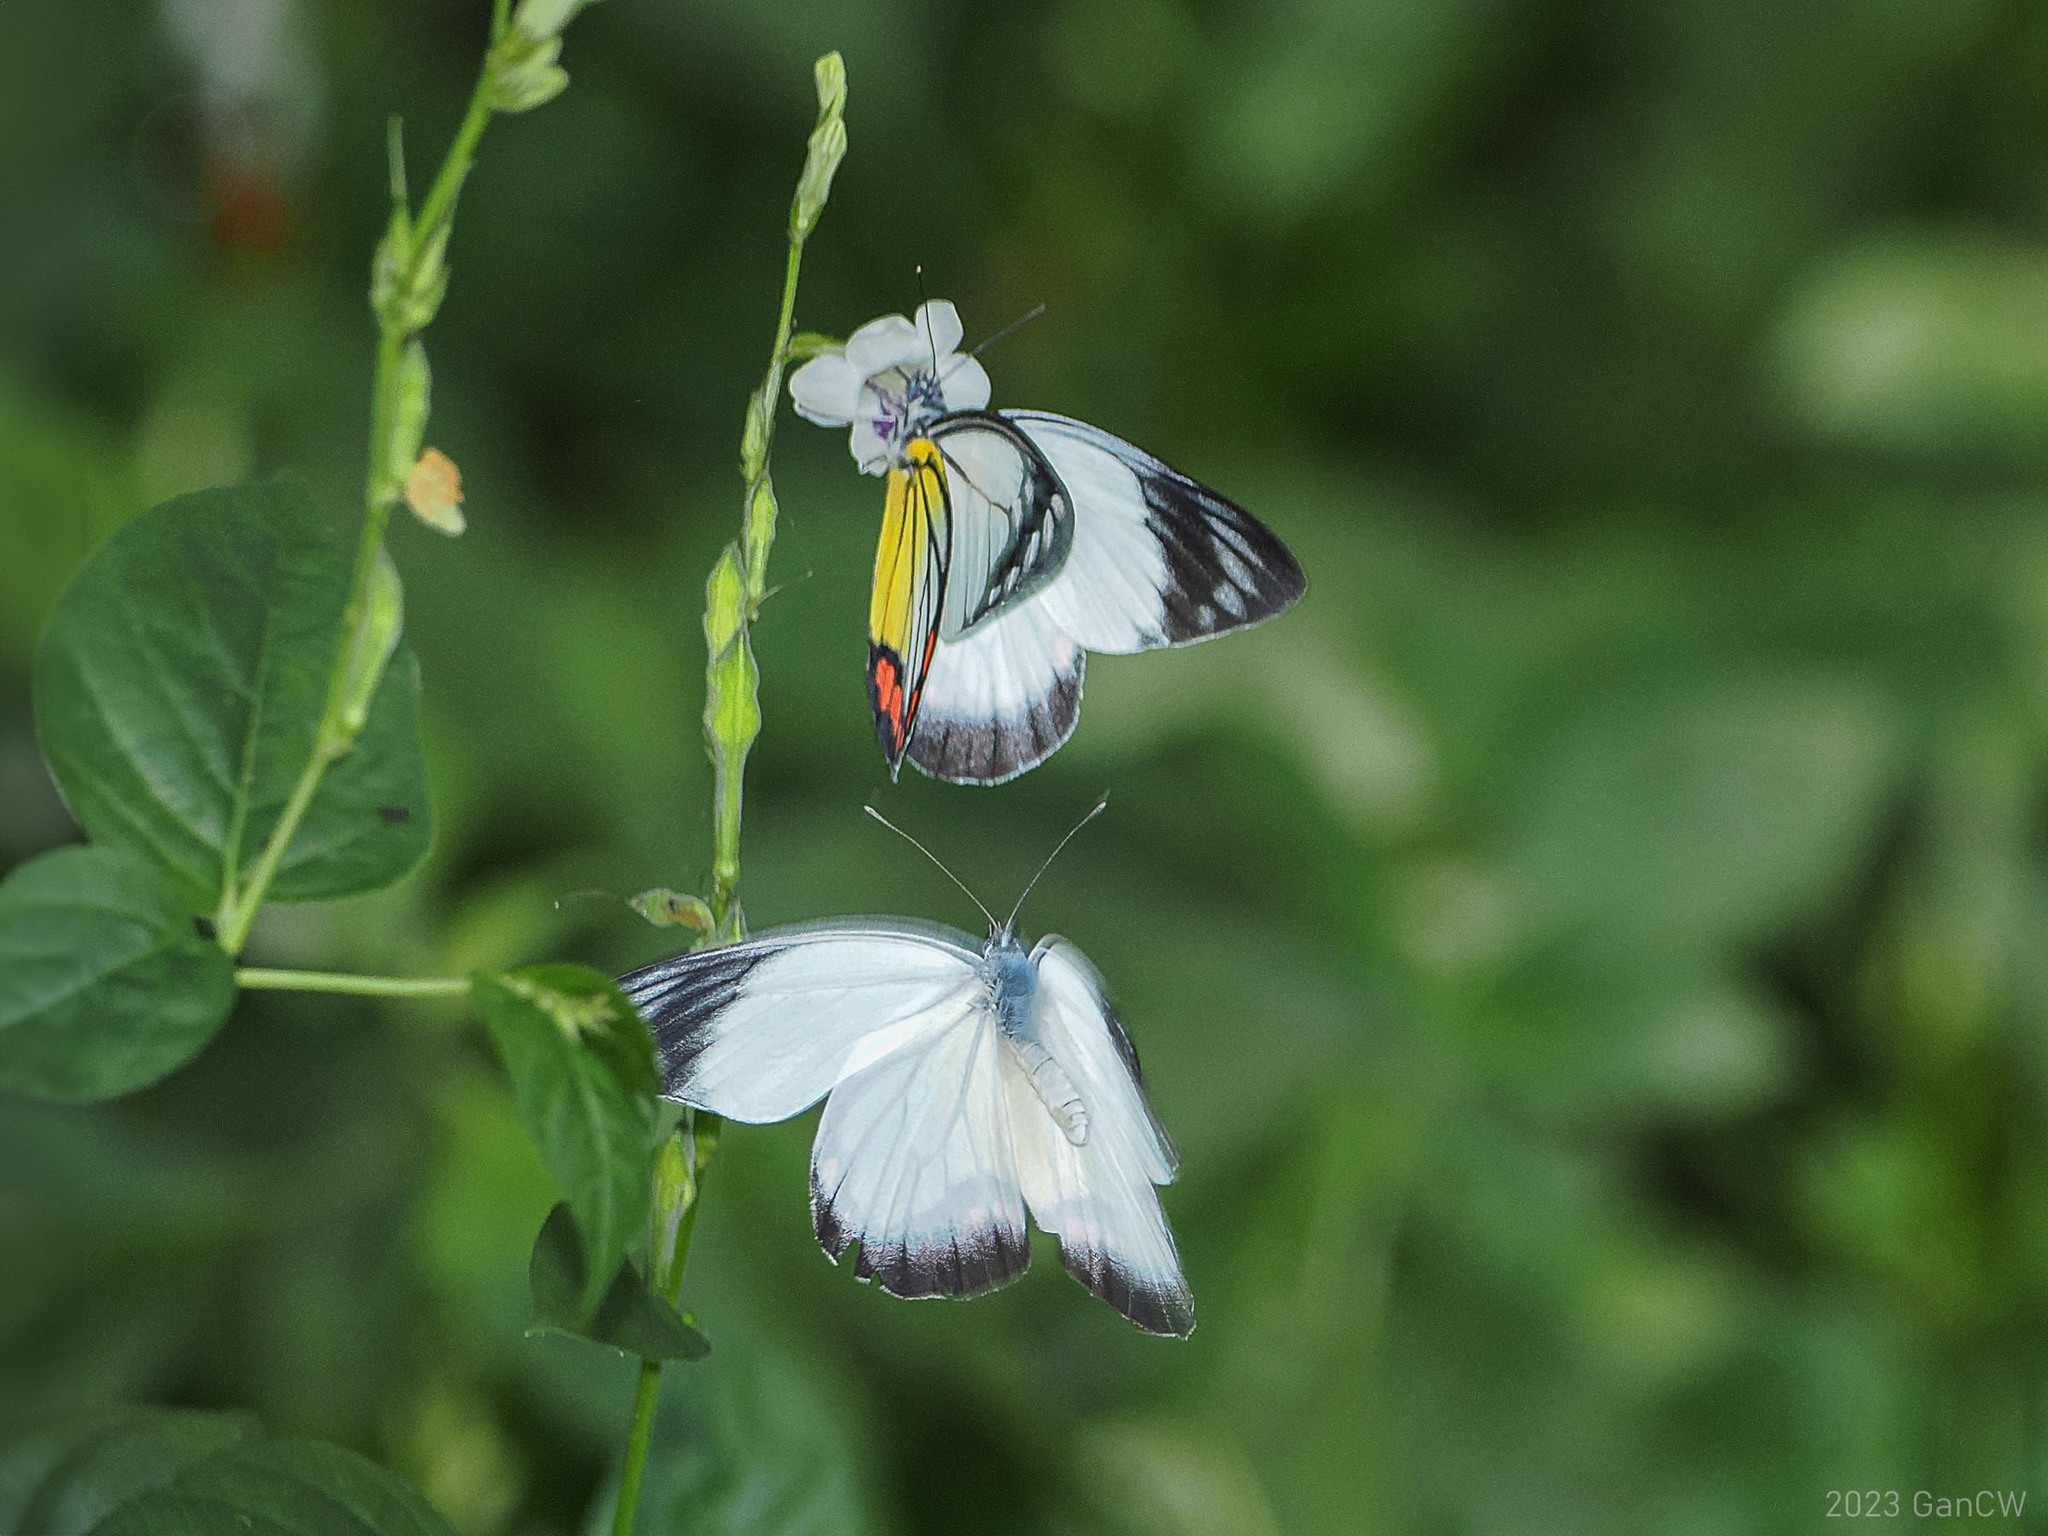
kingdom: Animalia
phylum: Arthropoda
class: Insecta
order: Lepidoptera
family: Pieridae
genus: Delias
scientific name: Delias hyparete
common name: Painted jezebel
